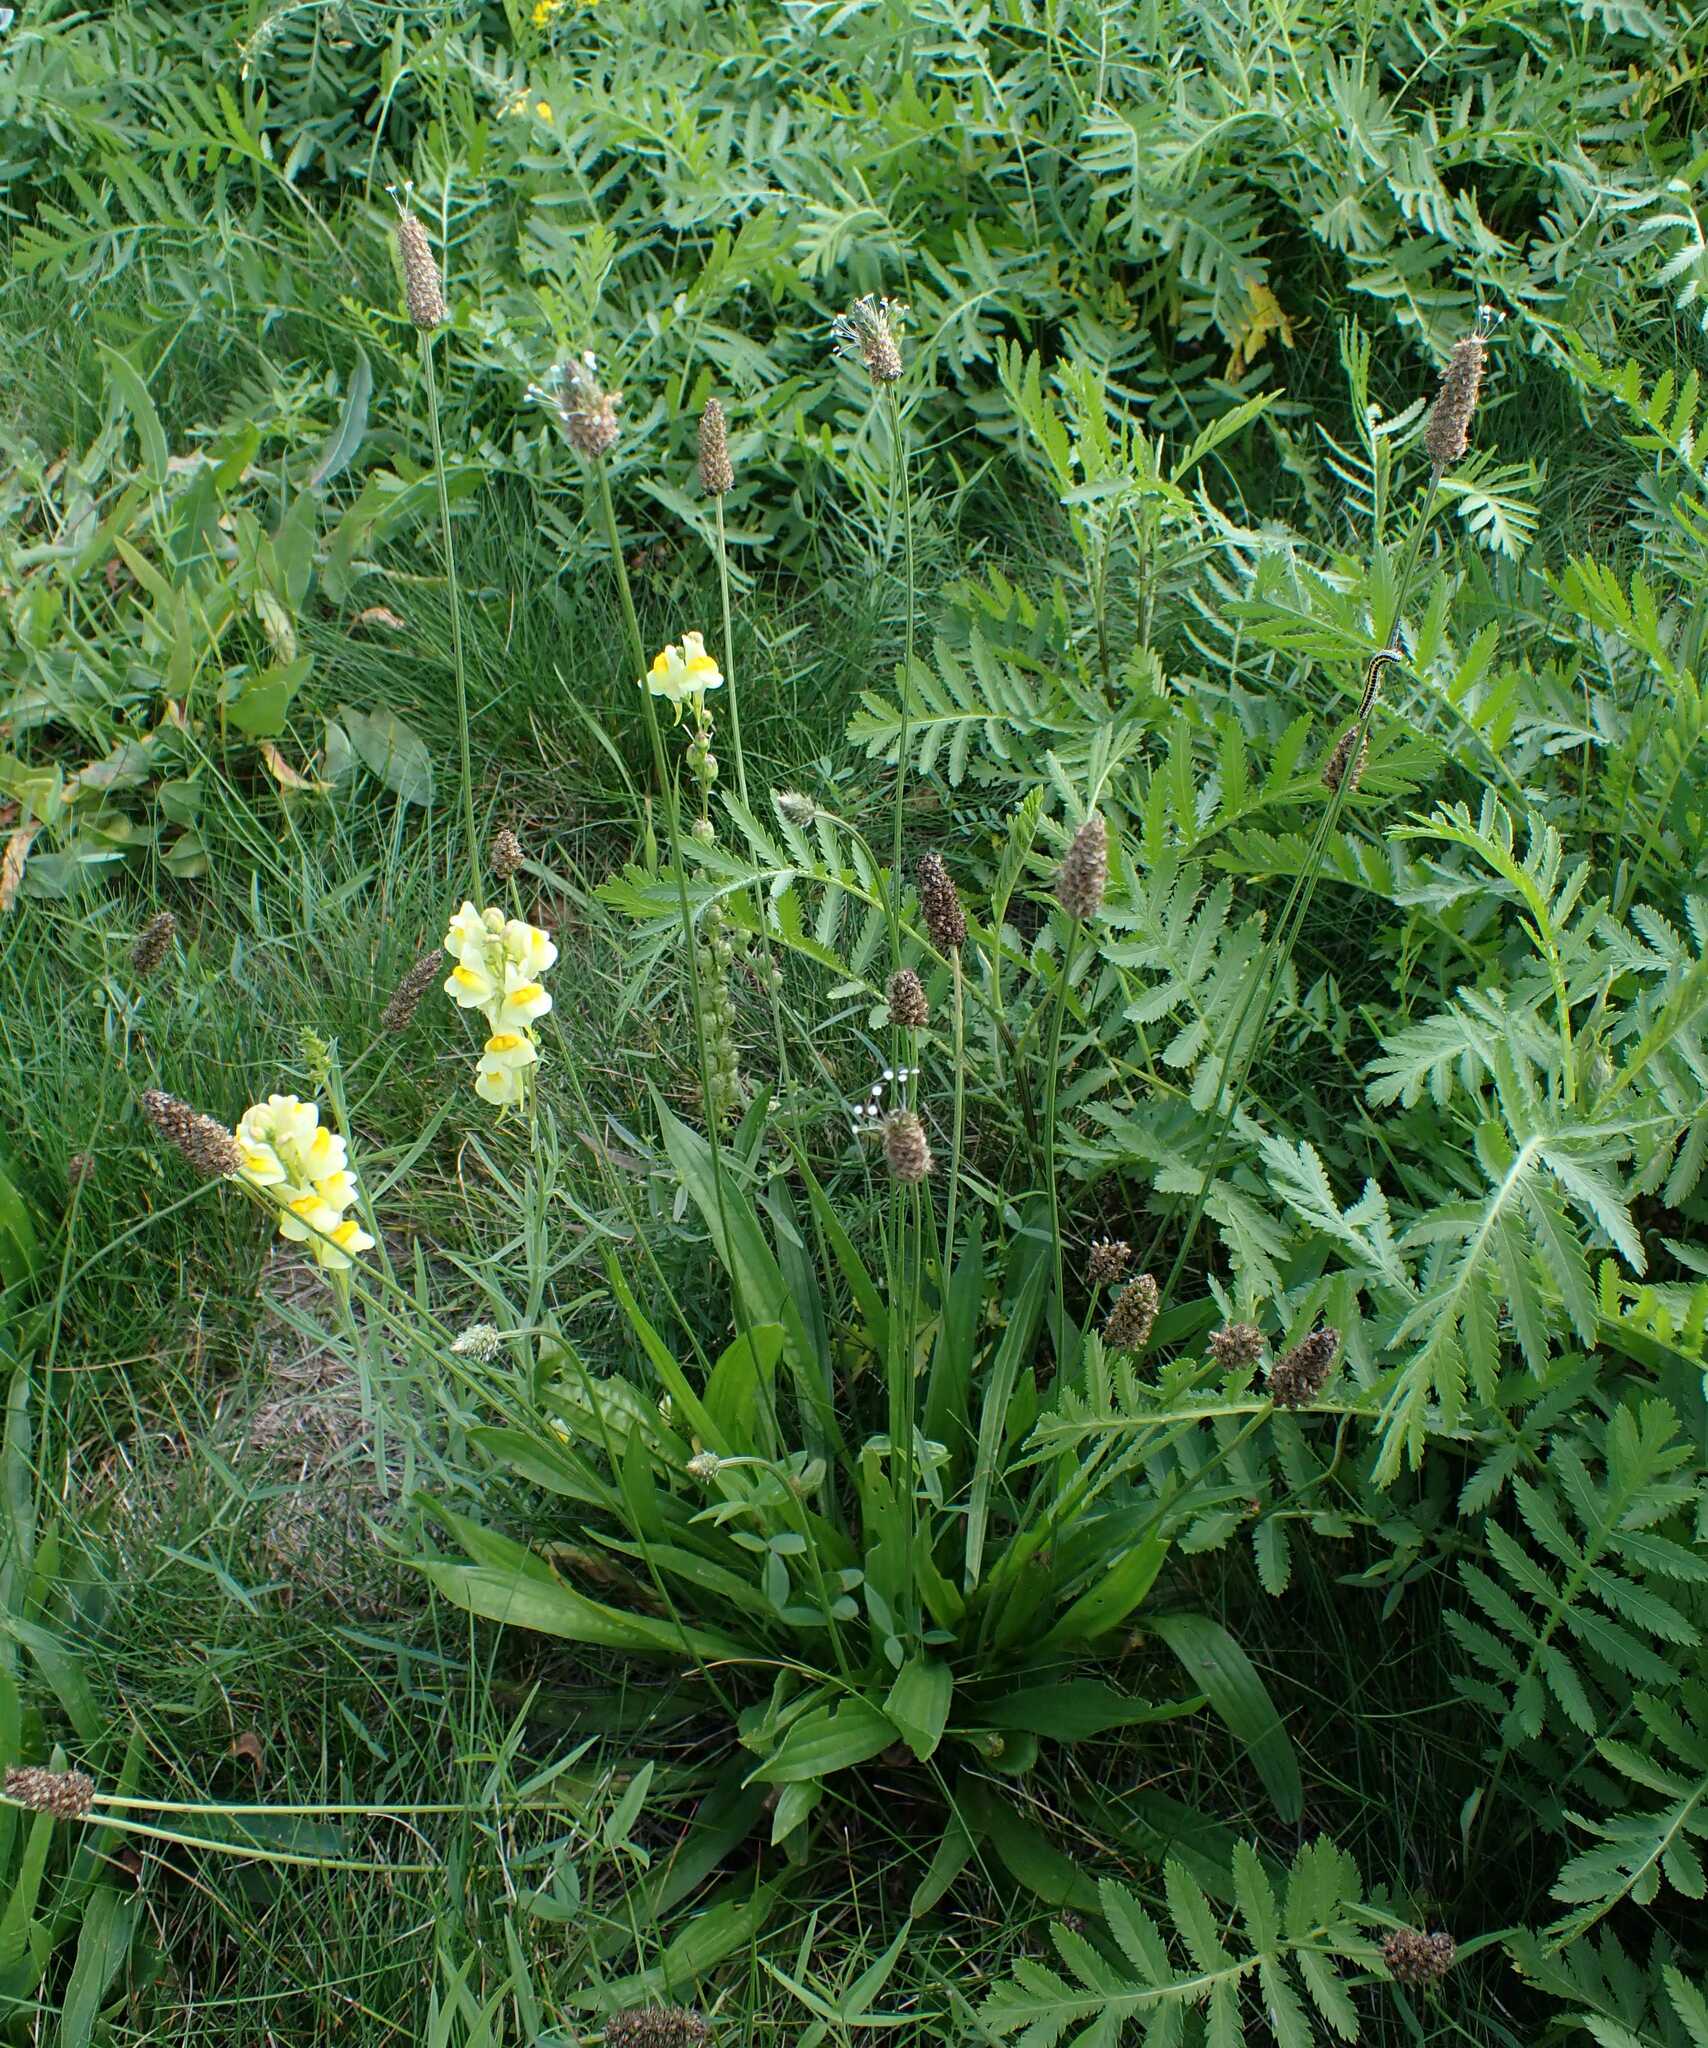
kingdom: Animalia
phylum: Arthropoda
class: Insecta
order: Lepidoptera
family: Noctuidae
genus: Calophasia
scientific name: Calophasia lunula
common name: Toadflax brocade
